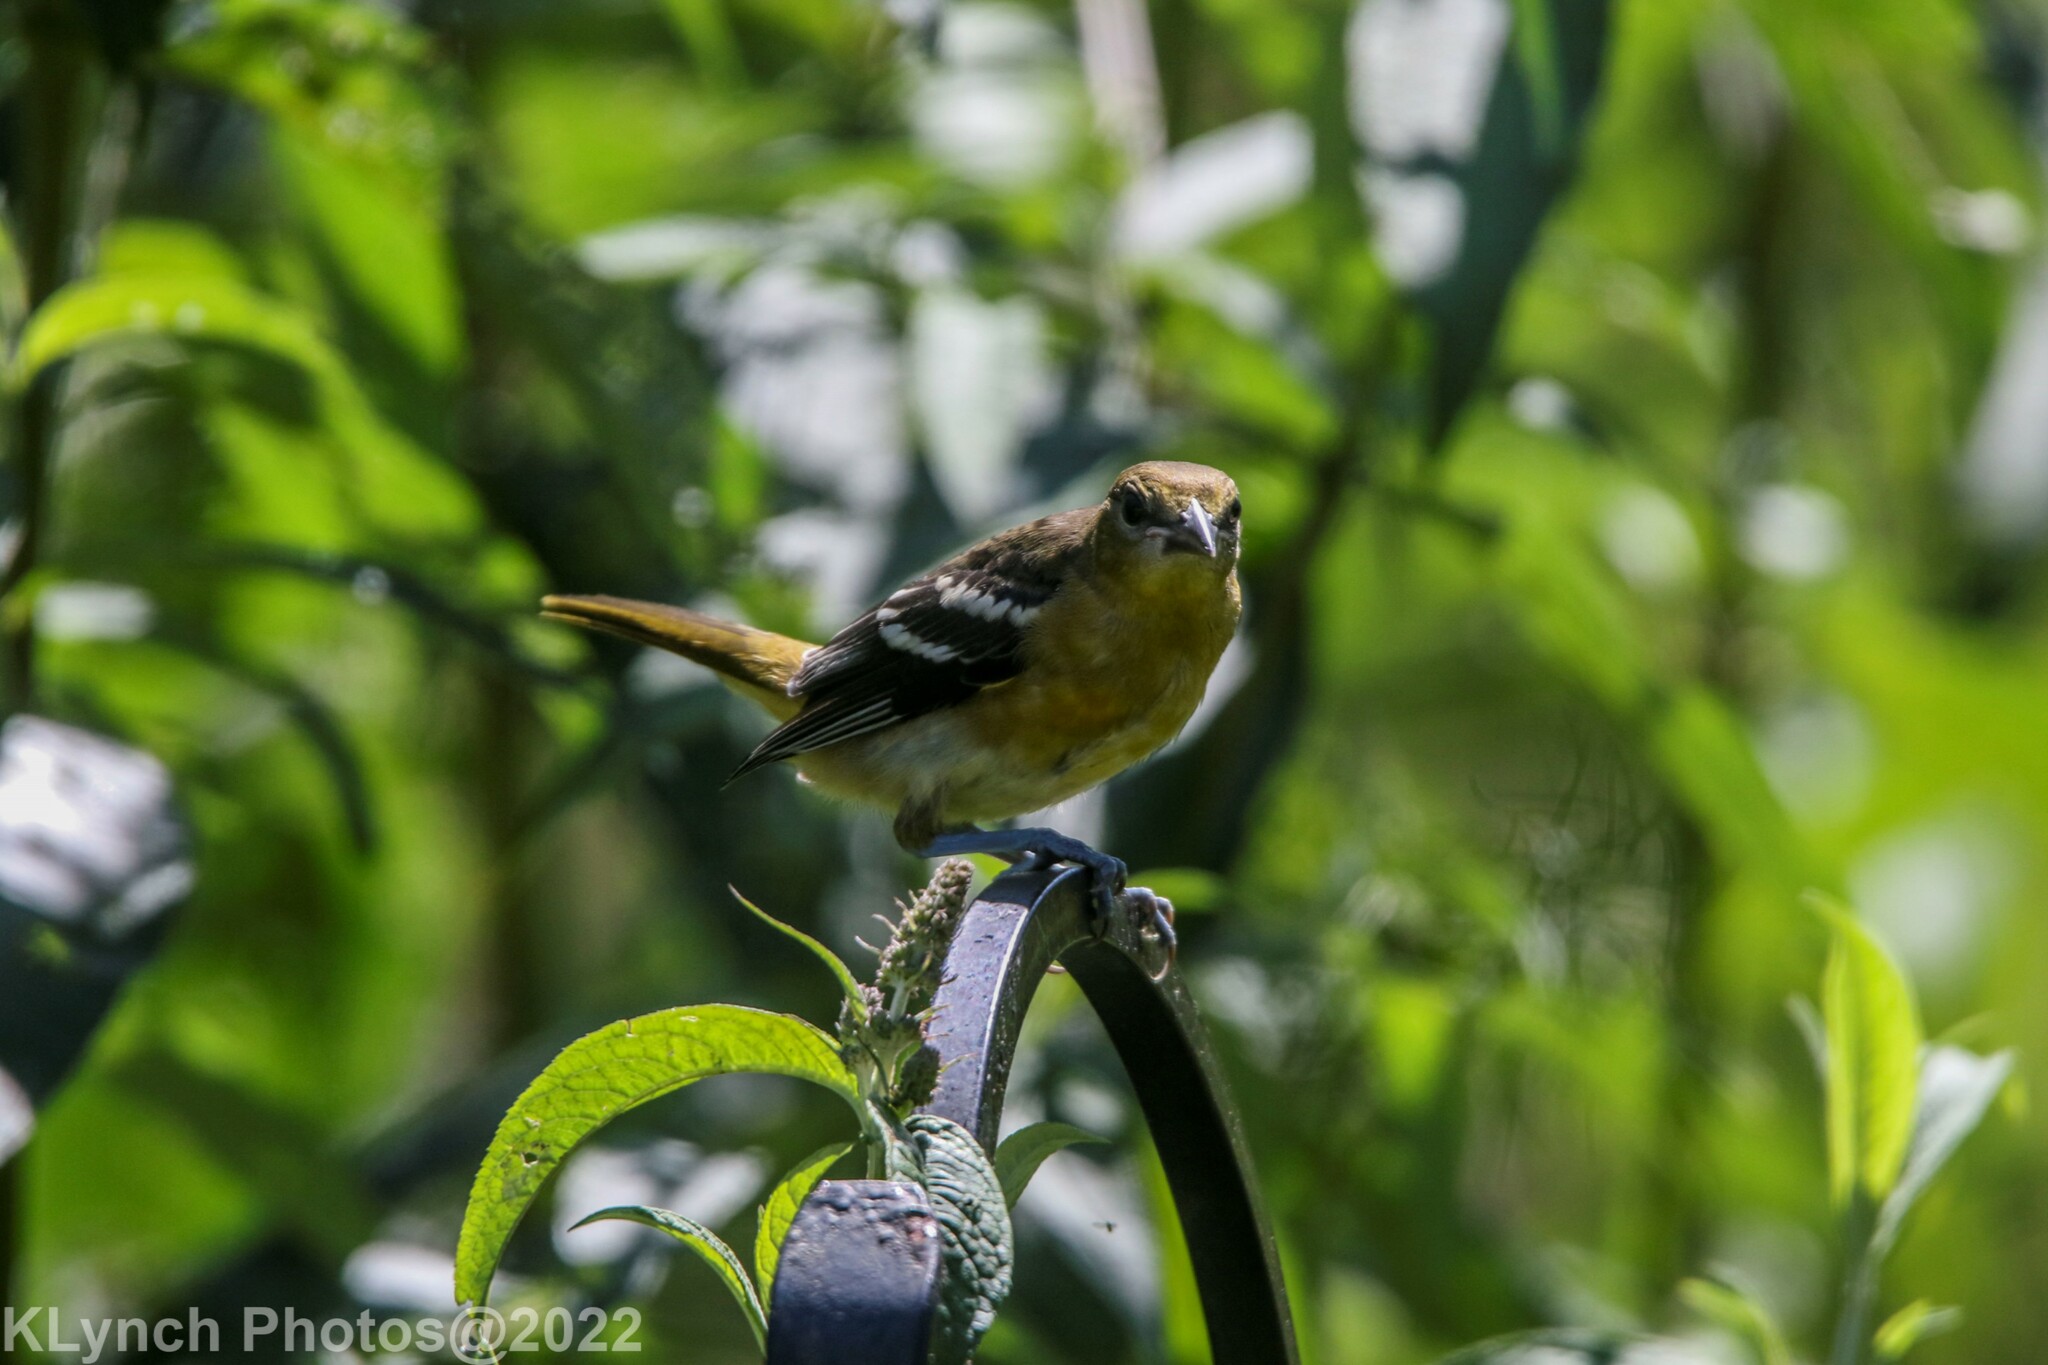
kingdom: Animalia
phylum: Chordata
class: Aves
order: Passeriformes
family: Icteridae
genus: Icterus
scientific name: Icterus galbula
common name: Baltimore oriole
